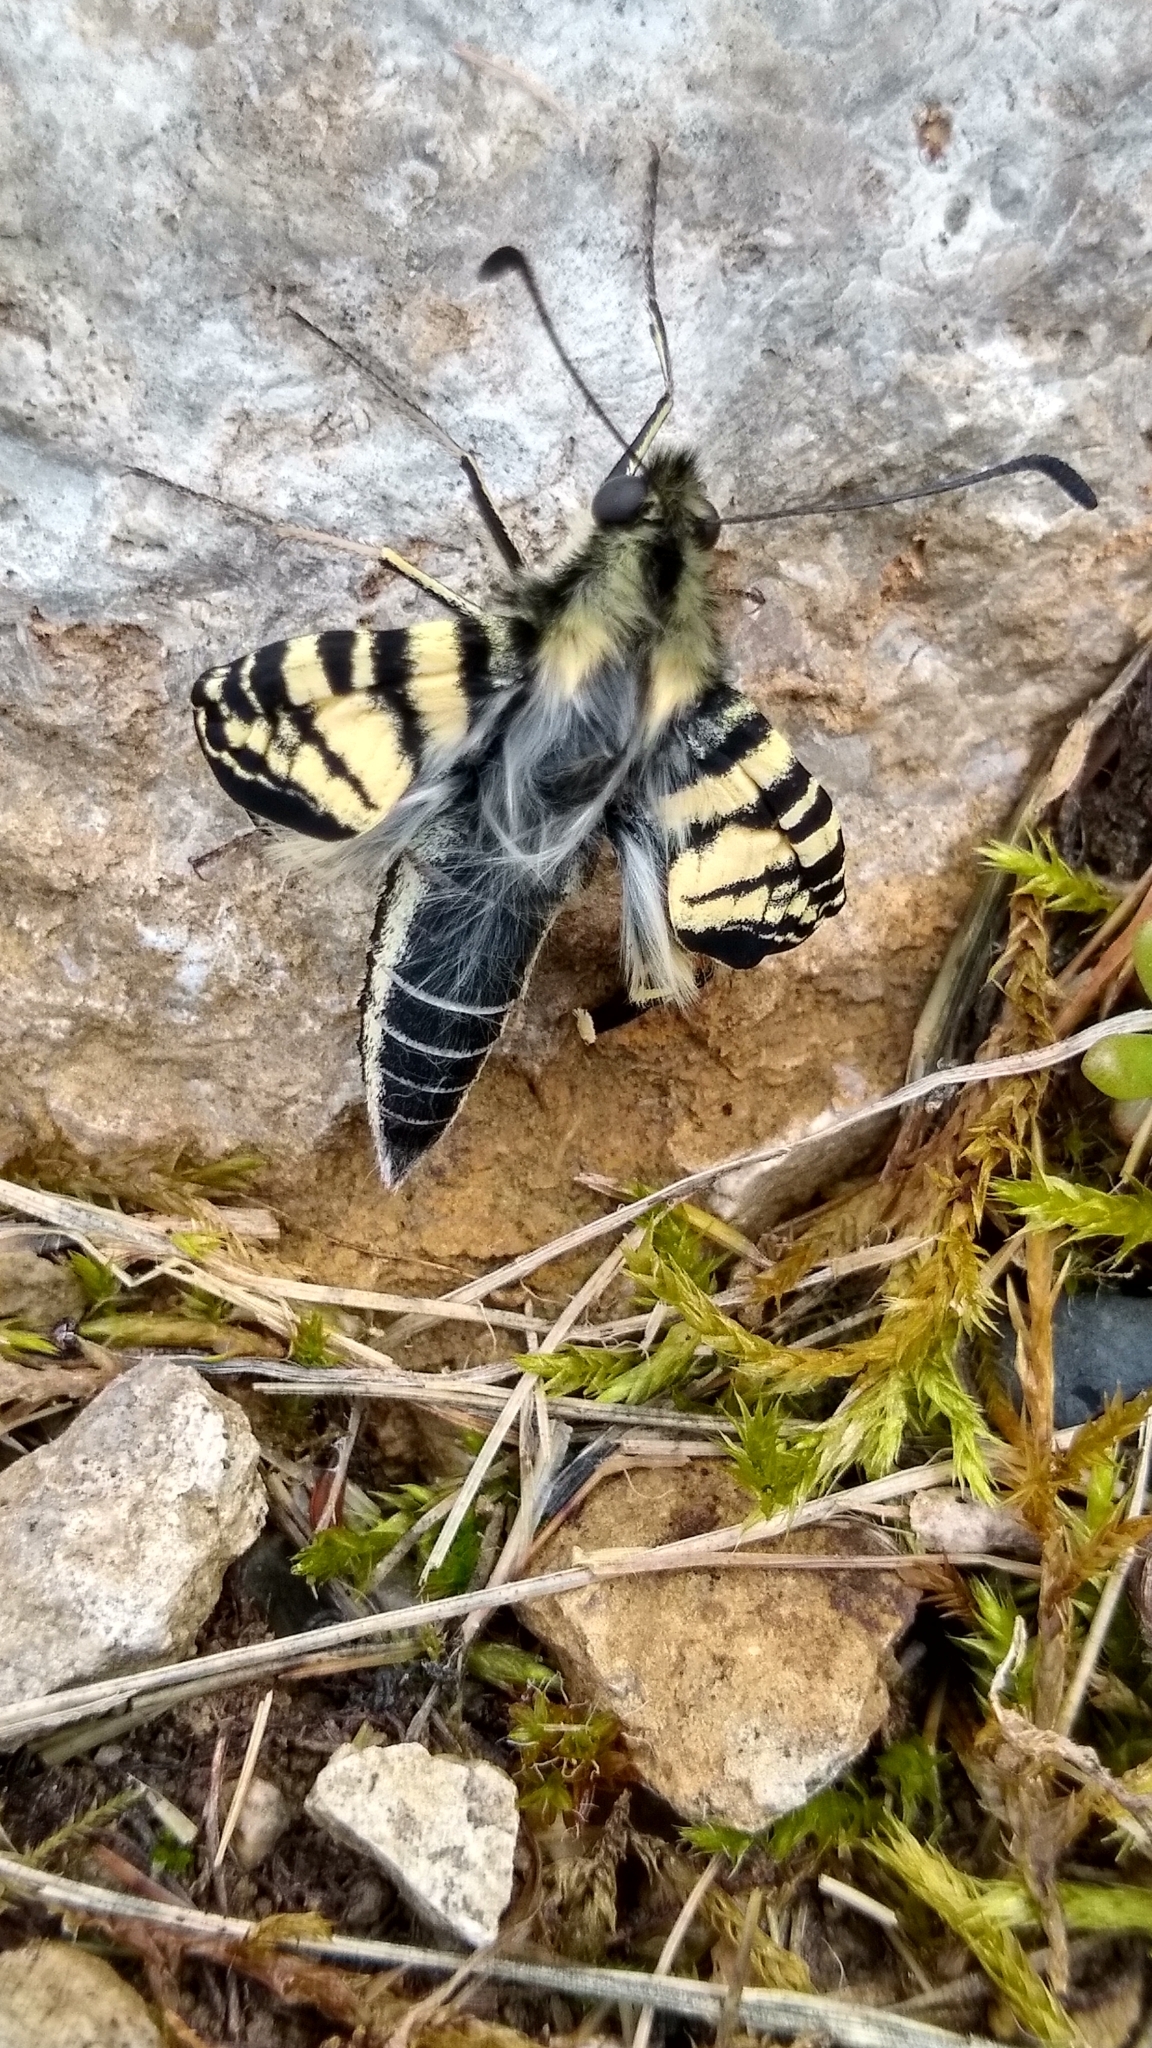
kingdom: Animalia
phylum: Arthropoda
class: Insecta
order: Lepidoptera
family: Papilionidae
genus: Iphiclides
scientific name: Iphiclides podalirius
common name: Scarce swallowtail
